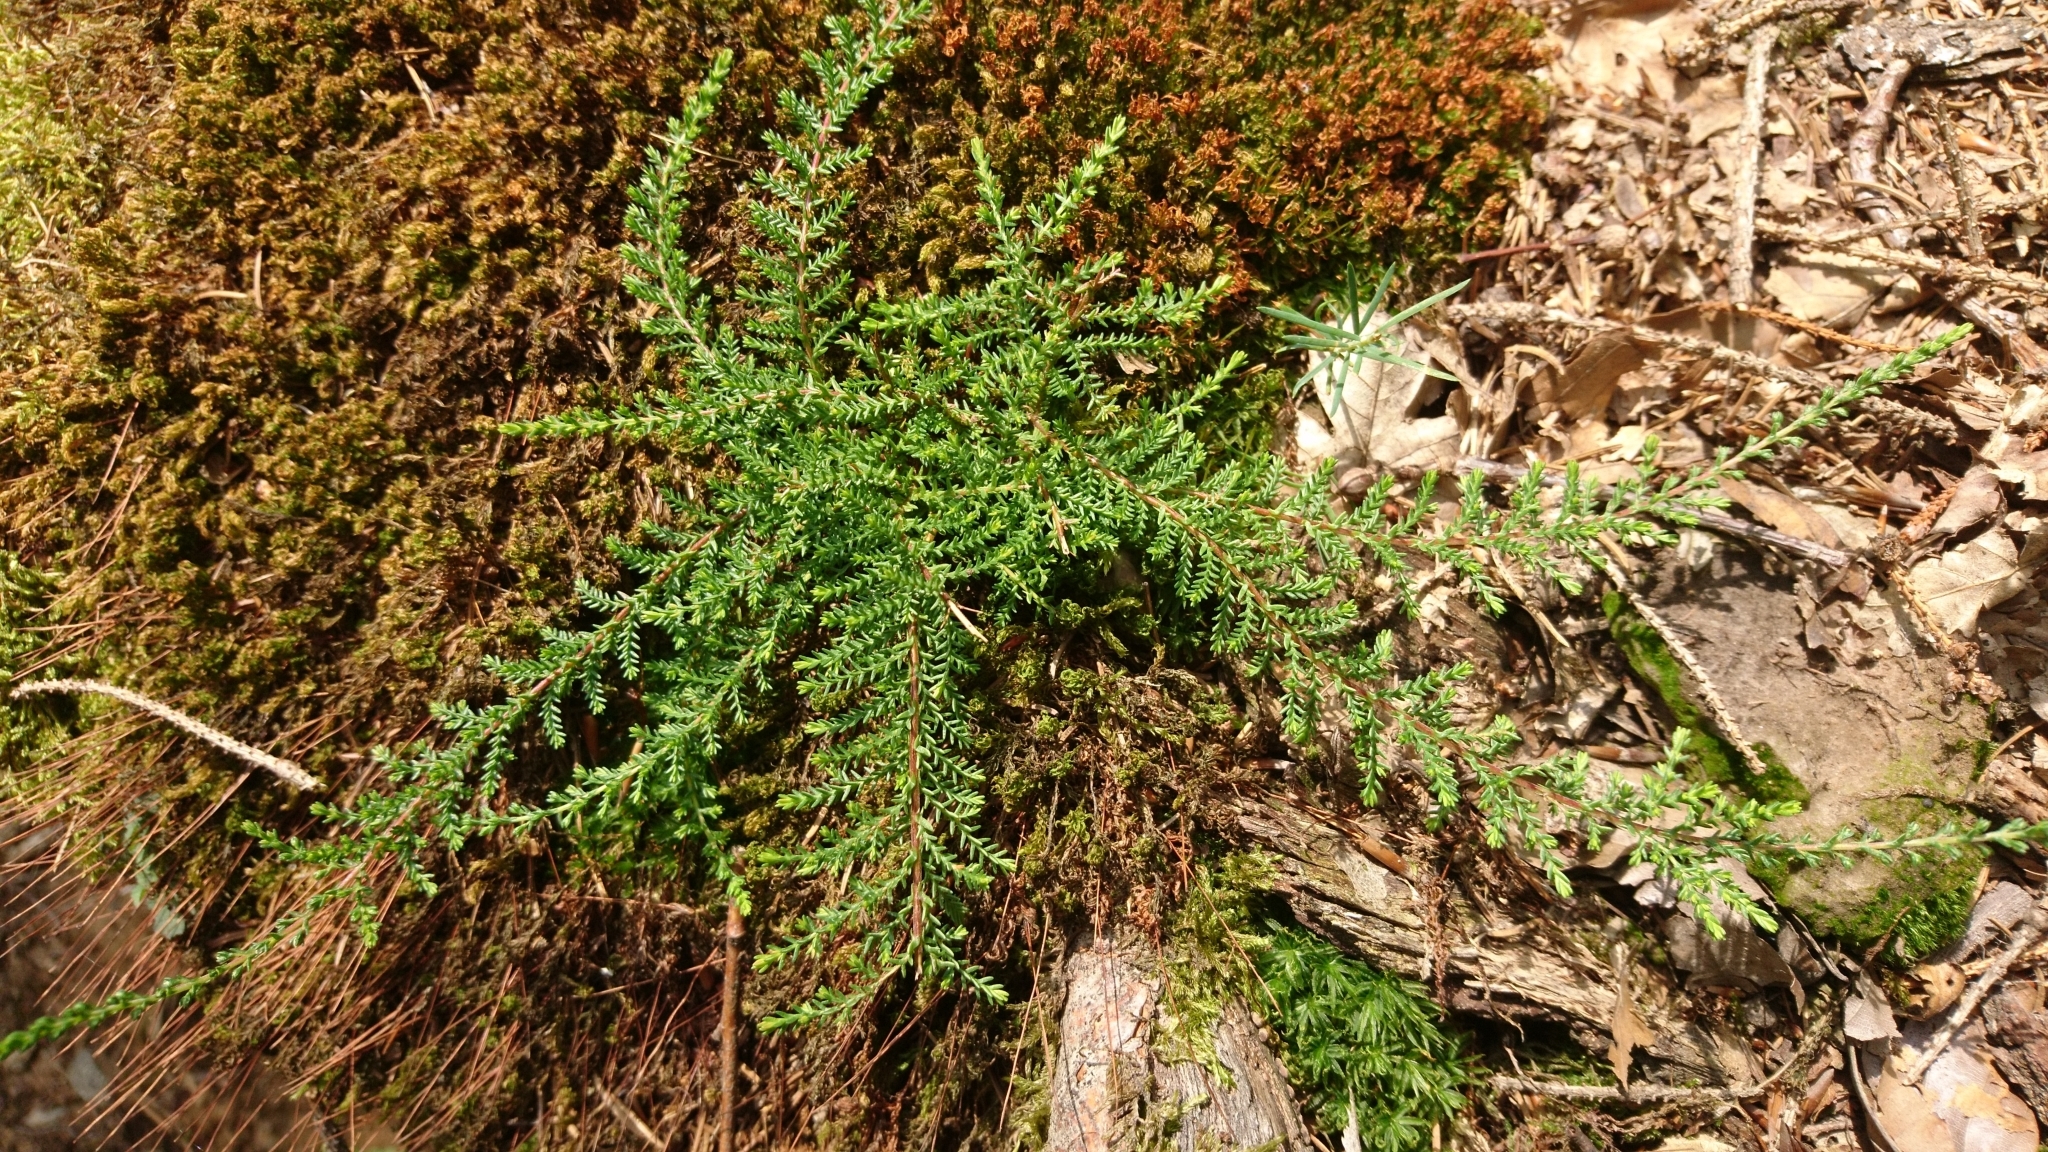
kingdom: Plantae
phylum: Tracheophyta
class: Magnoliopsida
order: Ericales
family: Ericaceae
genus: Calluna
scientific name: Calluna vulgaris
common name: Heather
